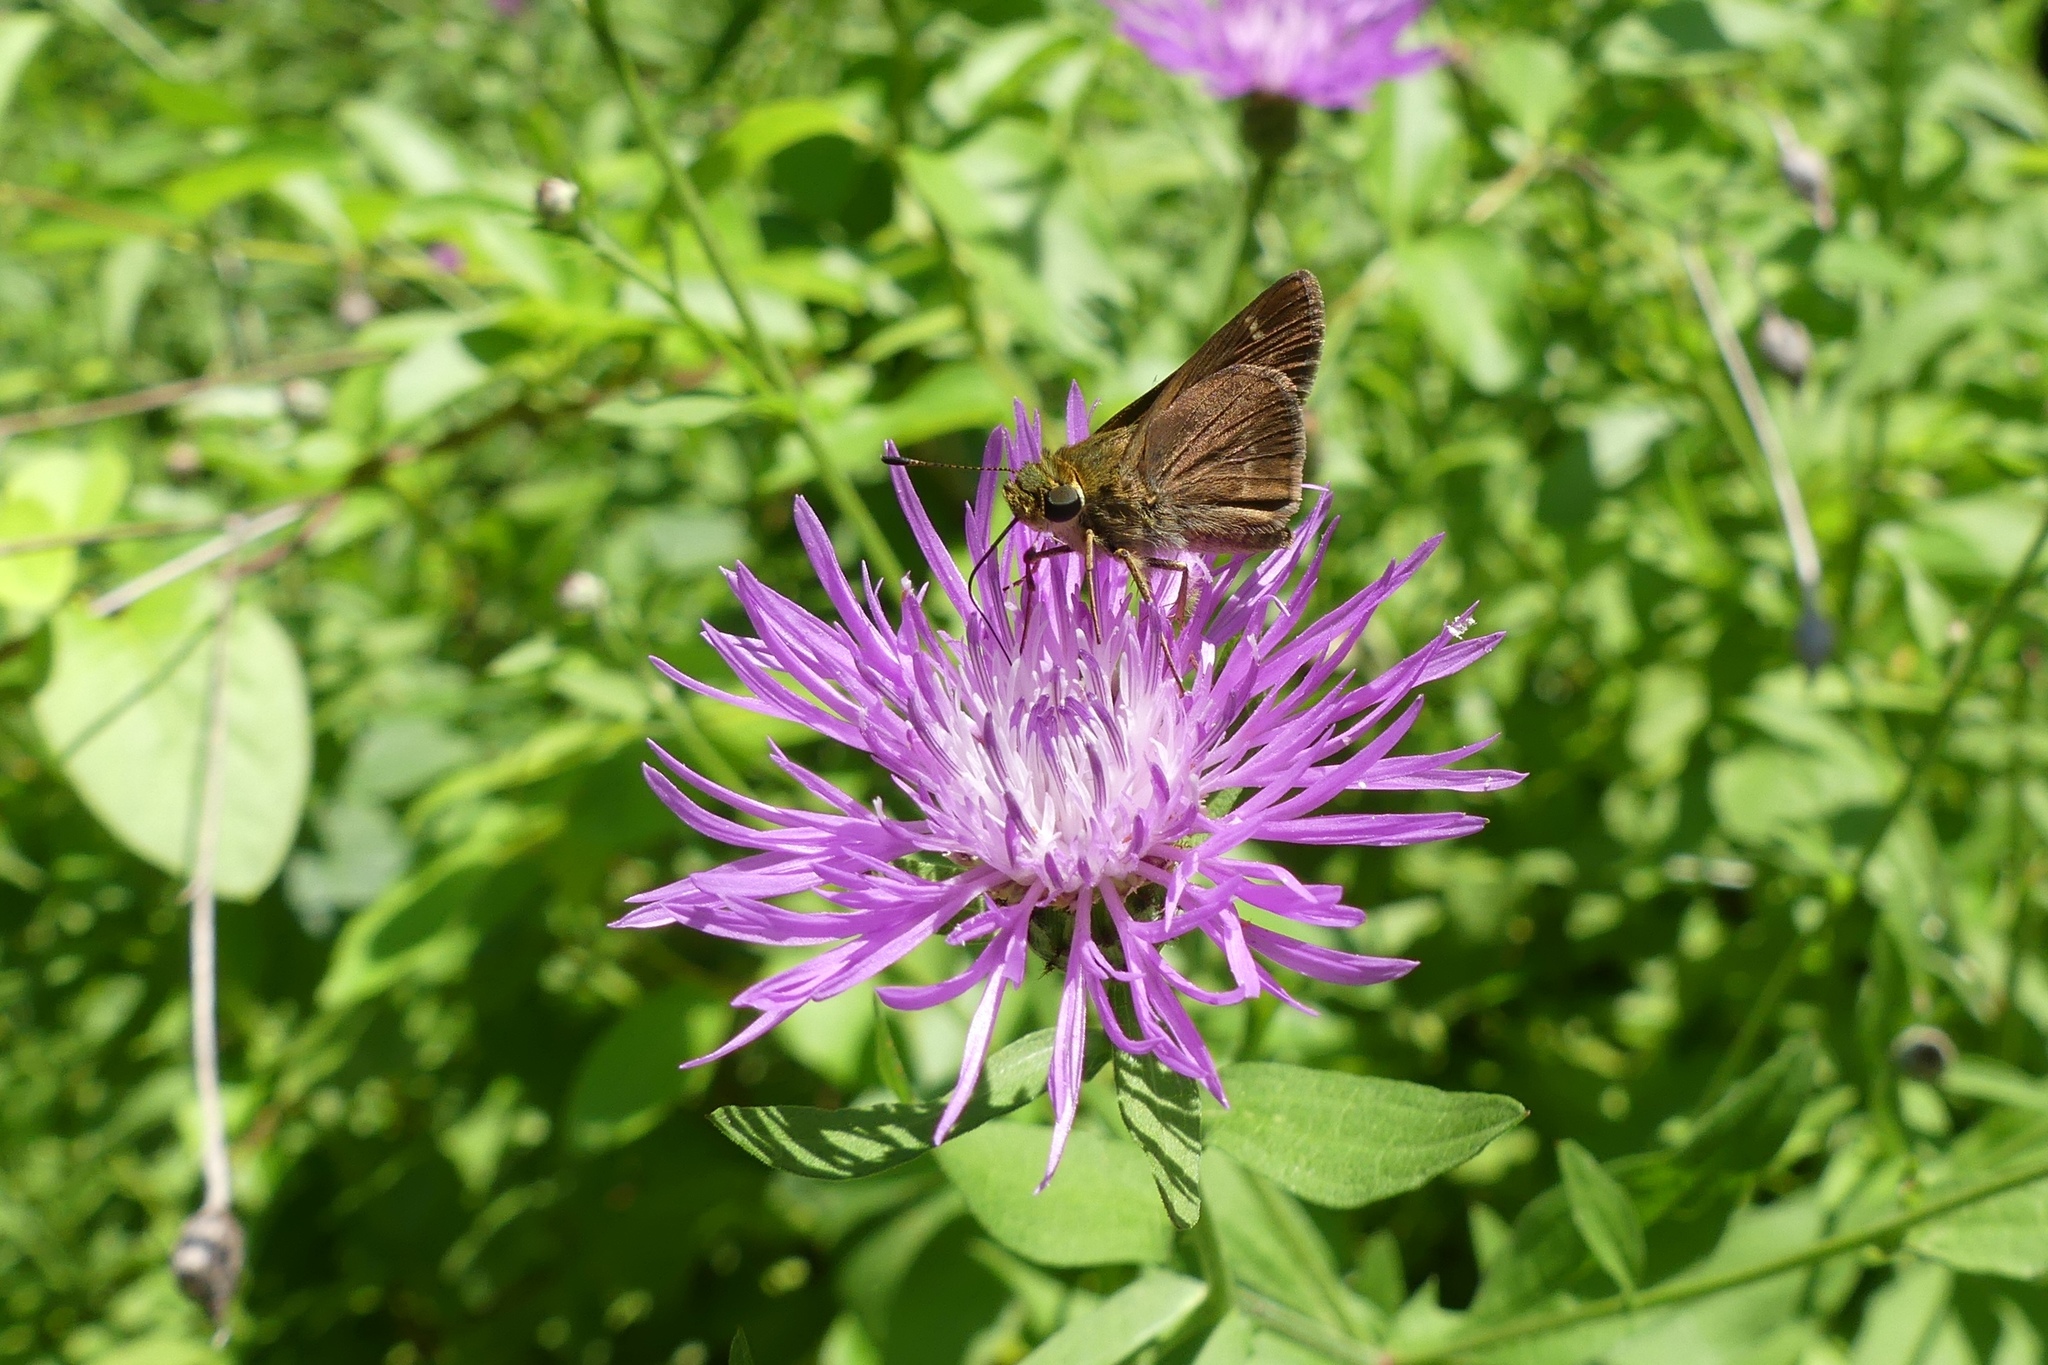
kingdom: Animalia
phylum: Arthropoda
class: Insecta
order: Lepidoptera
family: Hesperiidae
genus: Vernia
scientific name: Vernia verna
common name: Little glassywing
